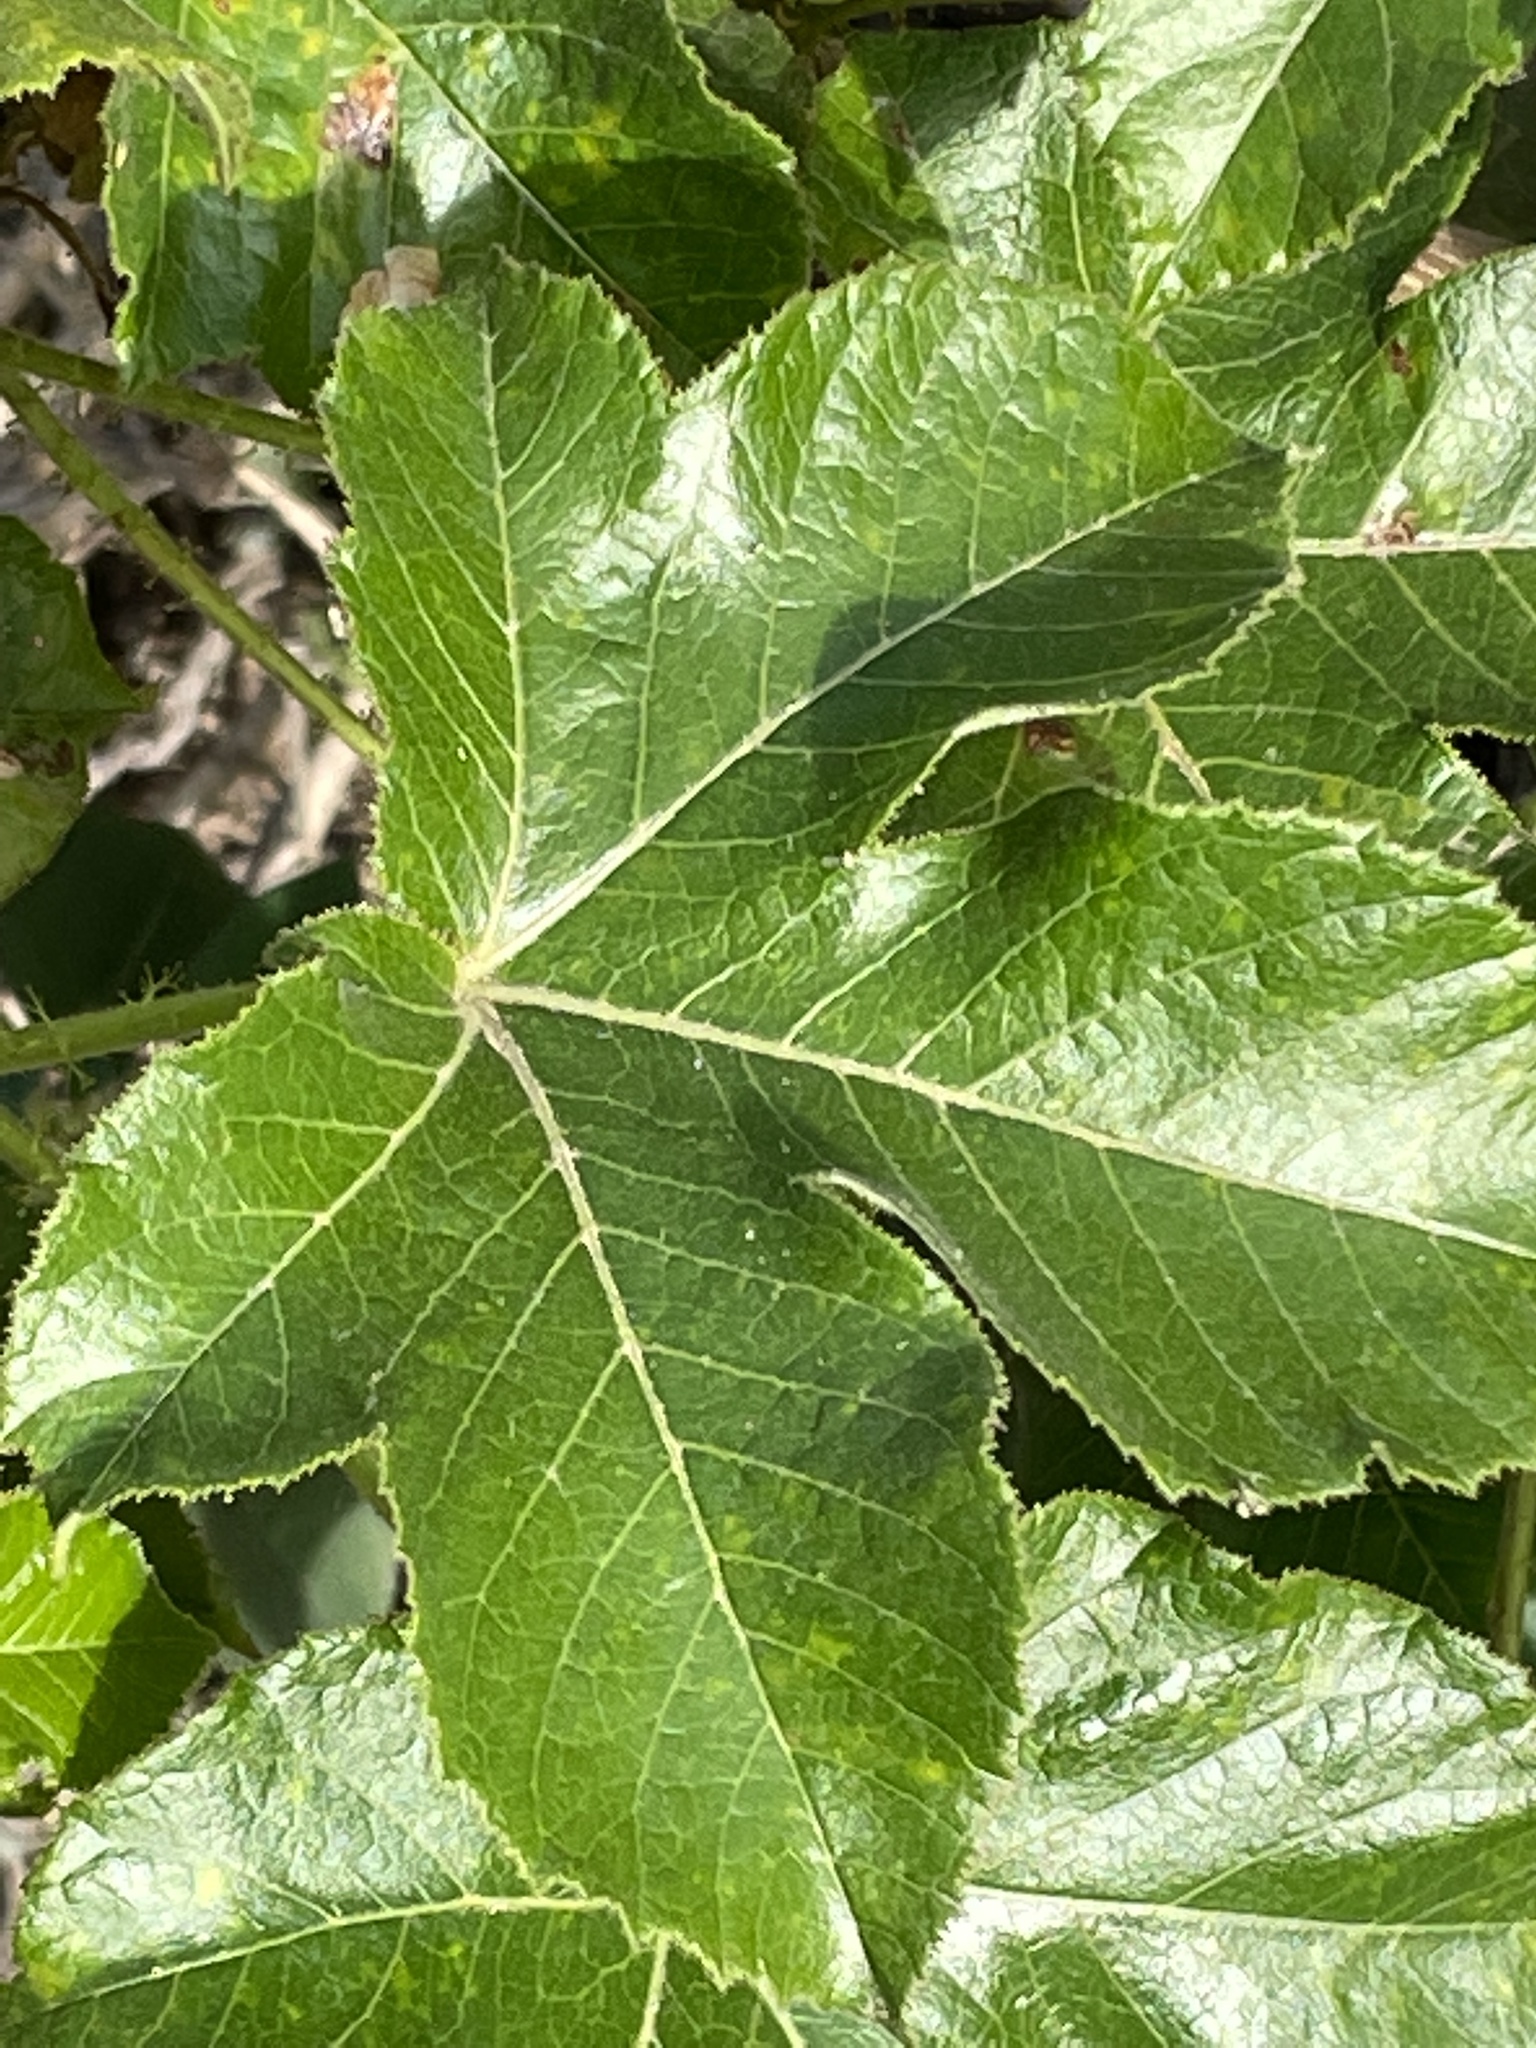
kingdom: Plantae
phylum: Tracheophyta
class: Magnoliopsida
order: Malpighiales
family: Euphorbiaceae
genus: Jatropha
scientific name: Jatropha gossypiifolia
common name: Bellyache bush
